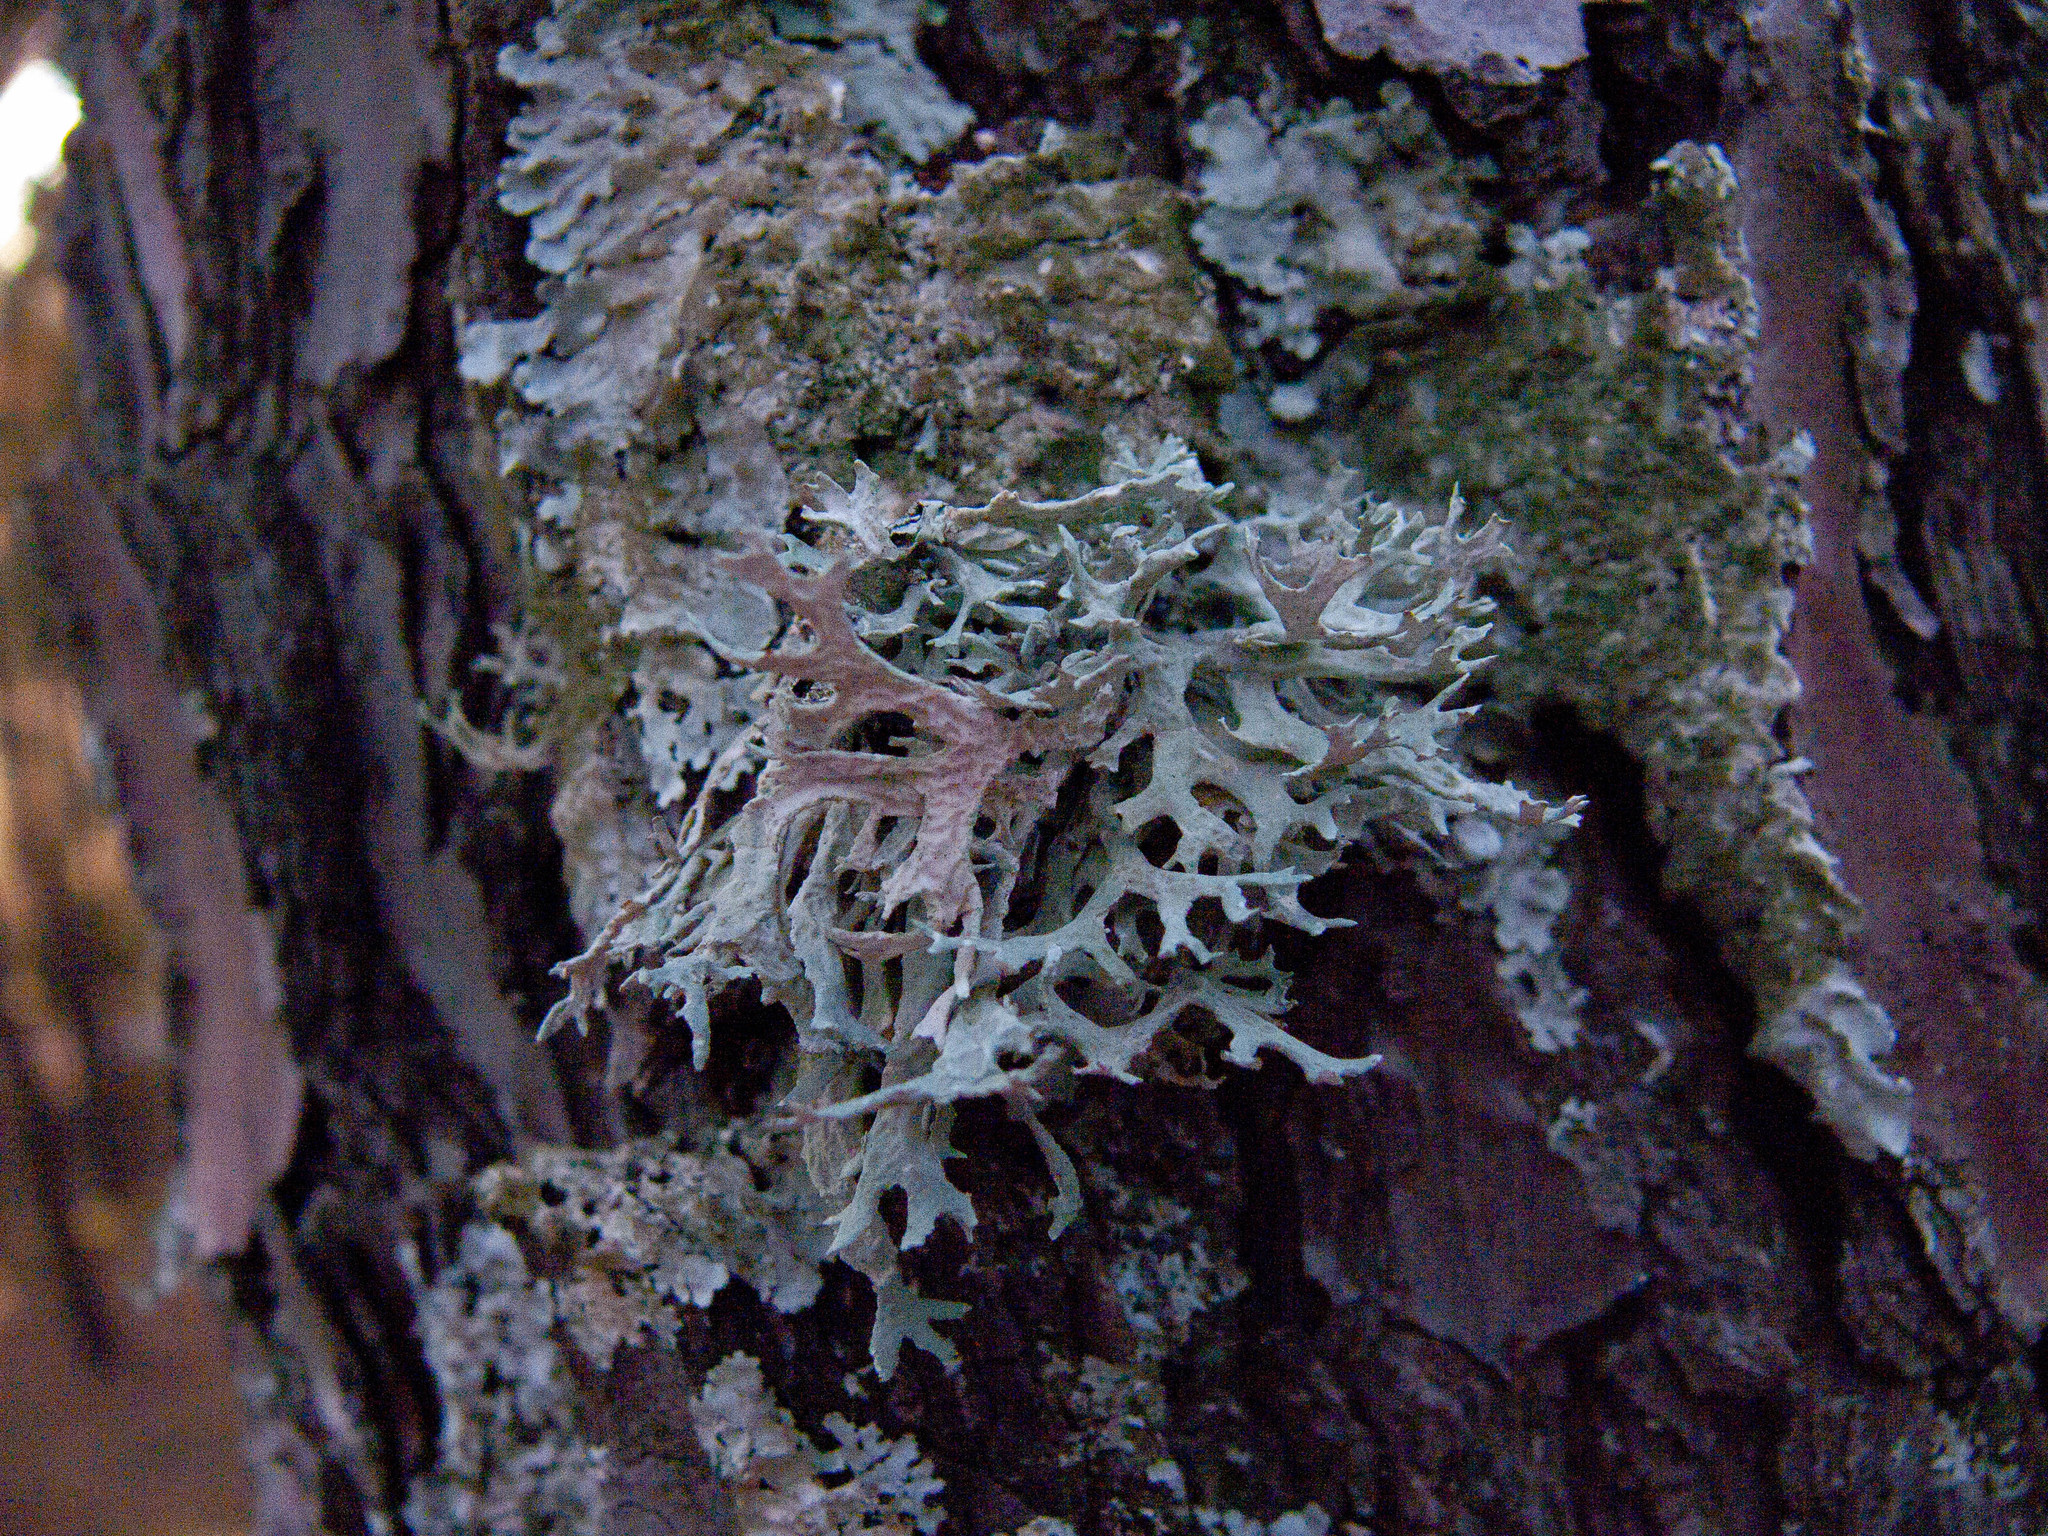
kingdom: Fungi
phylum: Ascomycota
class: Lecanoromycetes
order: Lecanorales
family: Parmeliaceae
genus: Evernia
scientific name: Evernia prunastri
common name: Oak moss
